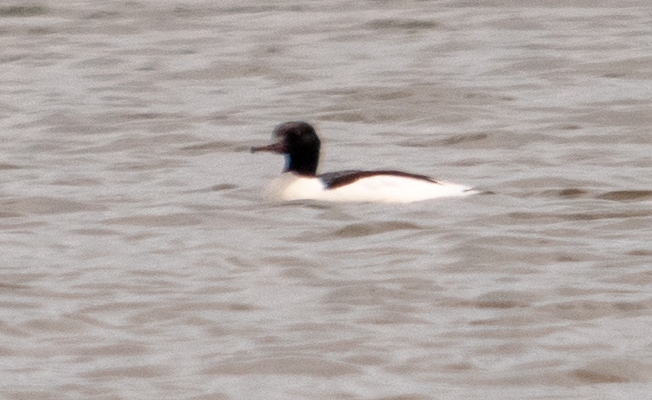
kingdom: Animalia
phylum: Chordata
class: Aves
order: Anseriformes
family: Anatidae
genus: Mergus
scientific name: Mergus merganser
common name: Common merganser
